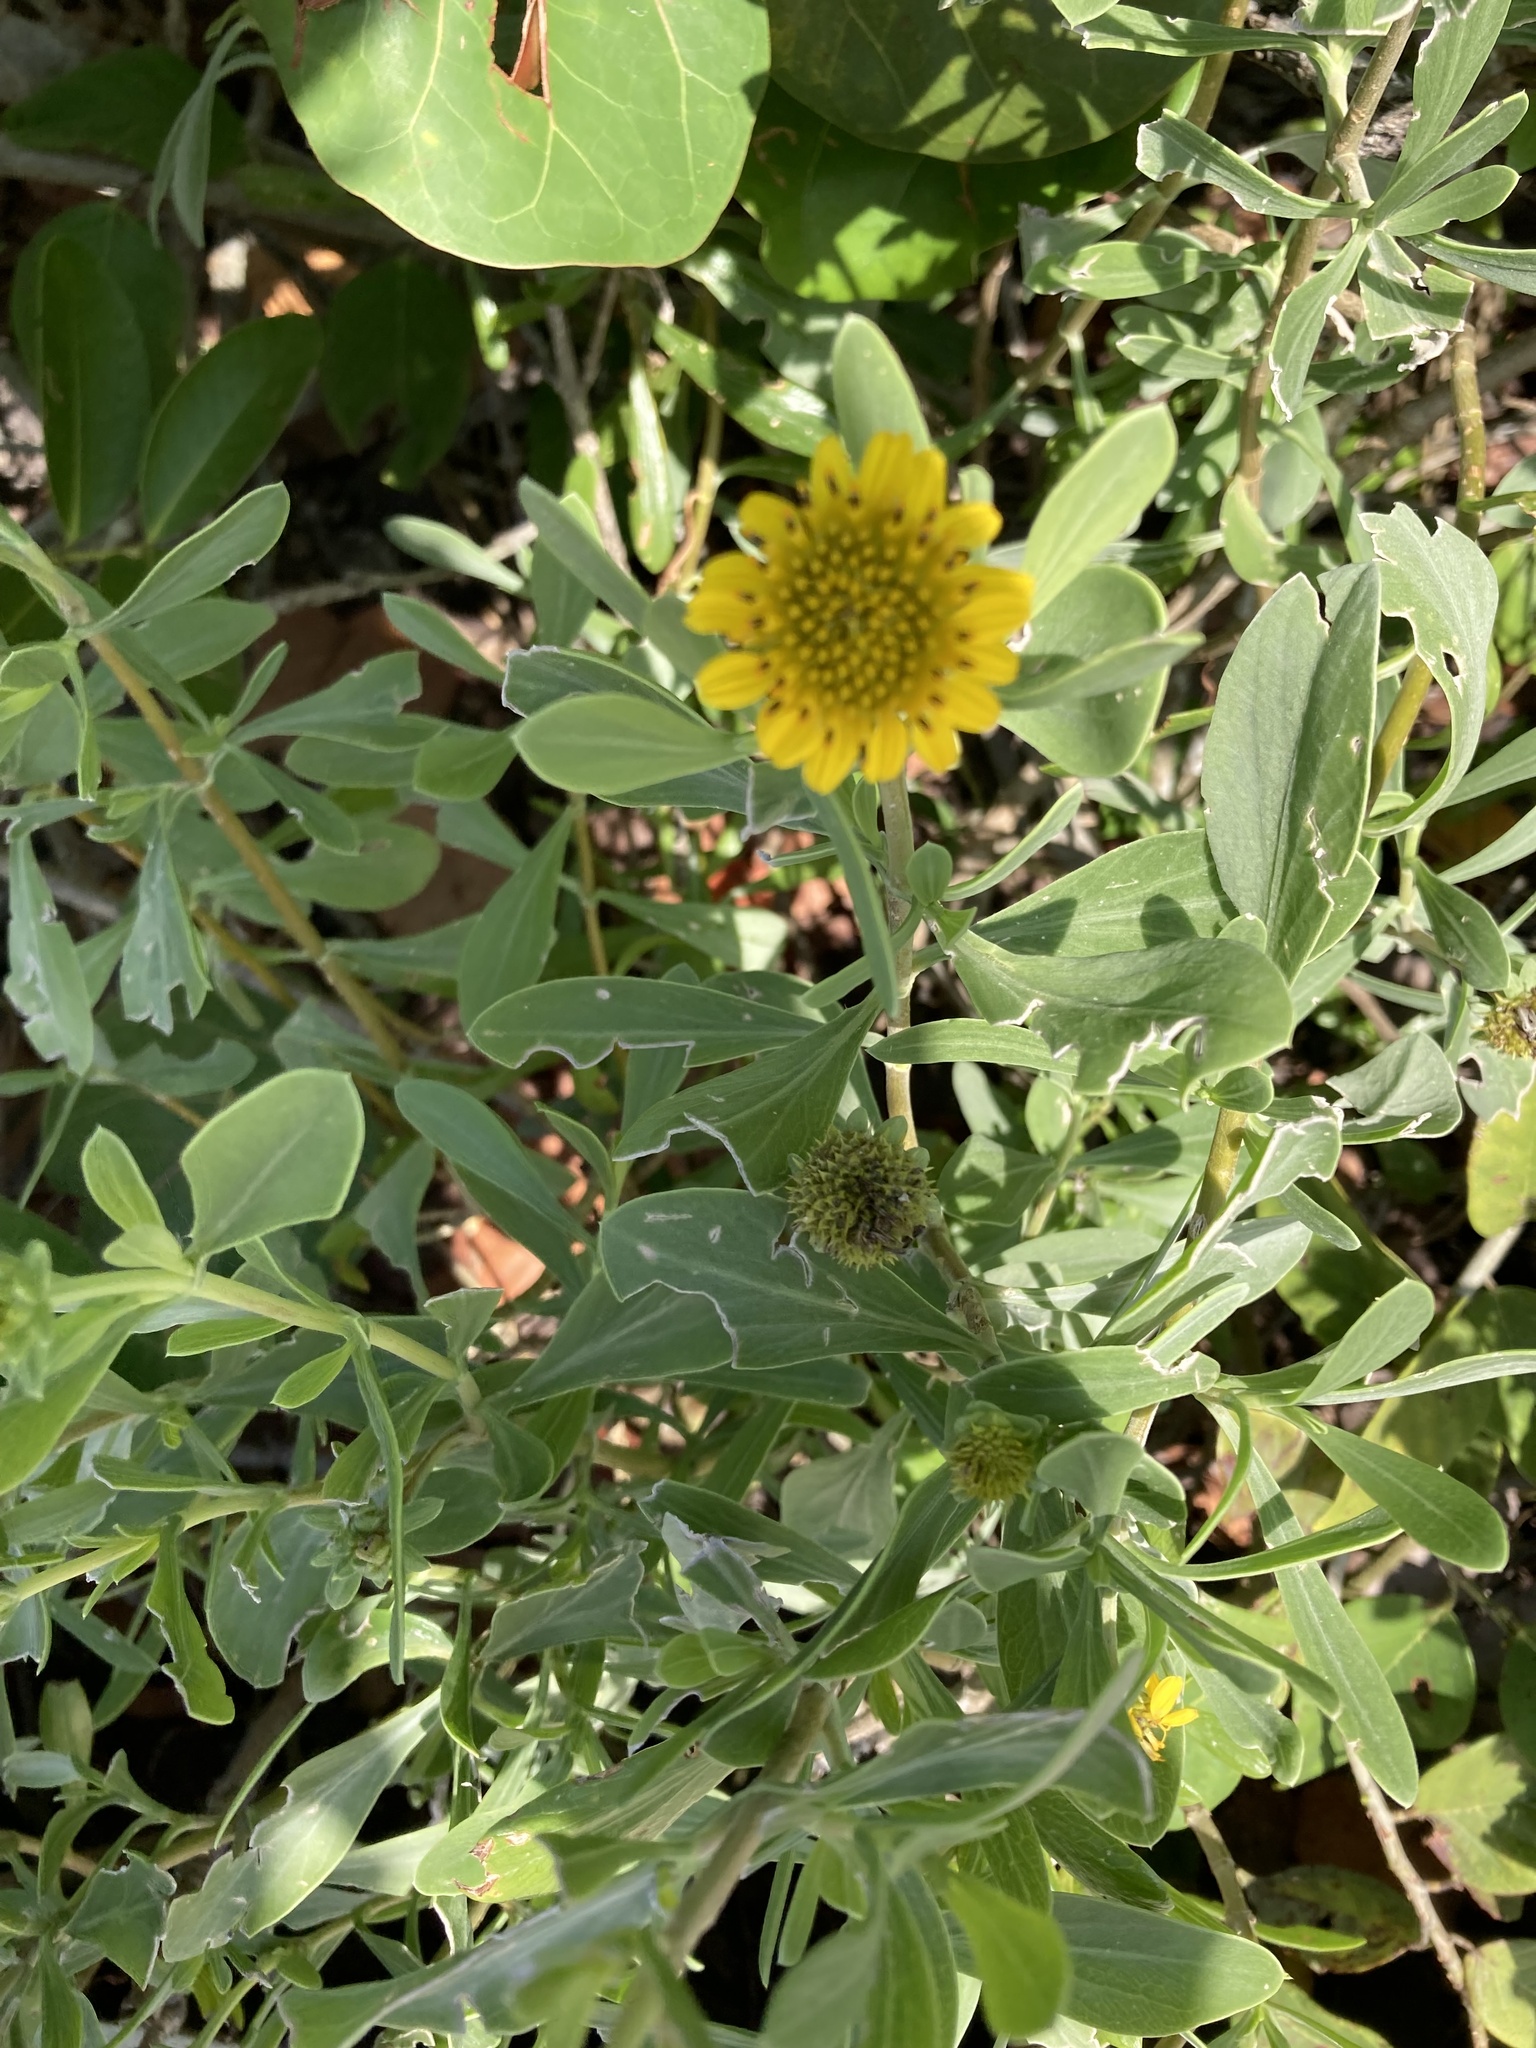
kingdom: Plantae
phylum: Tracheophyta
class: Magnoliopsida
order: Asterales
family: Asteraceae
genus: Borrichia
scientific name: Borrichia frutescens
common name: Sea oxeye
